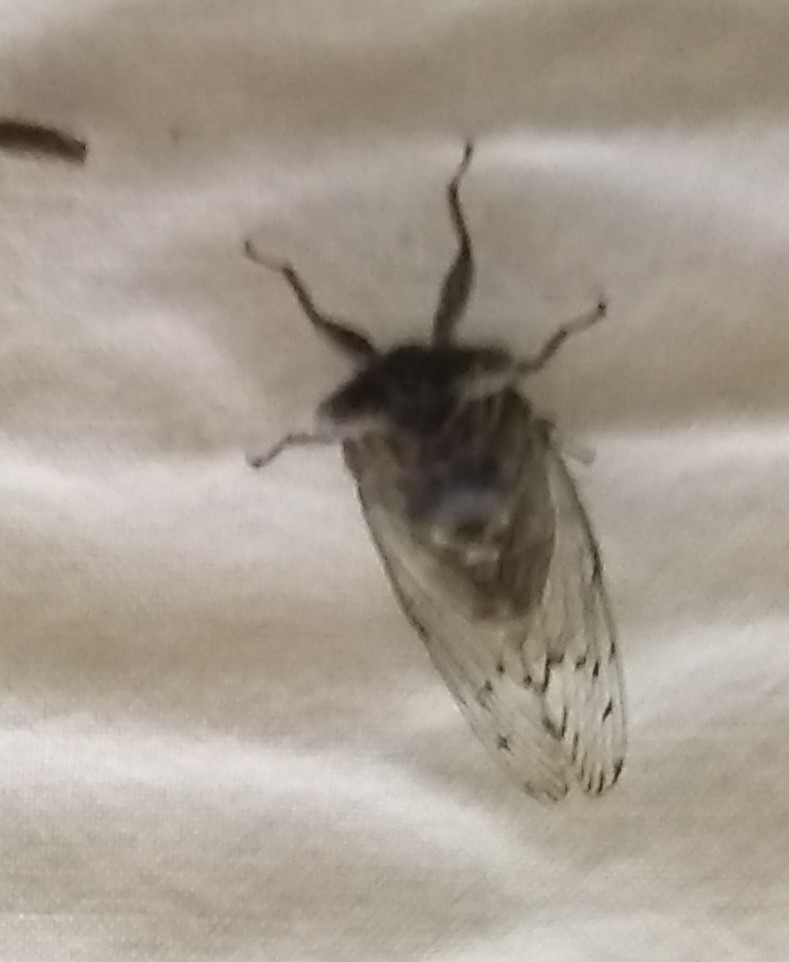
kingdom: Animalia
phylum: Arthropoda
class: Insecta
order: Hemiptera
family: Cicadidae
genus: Pacarina
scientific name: Pacarina puella
